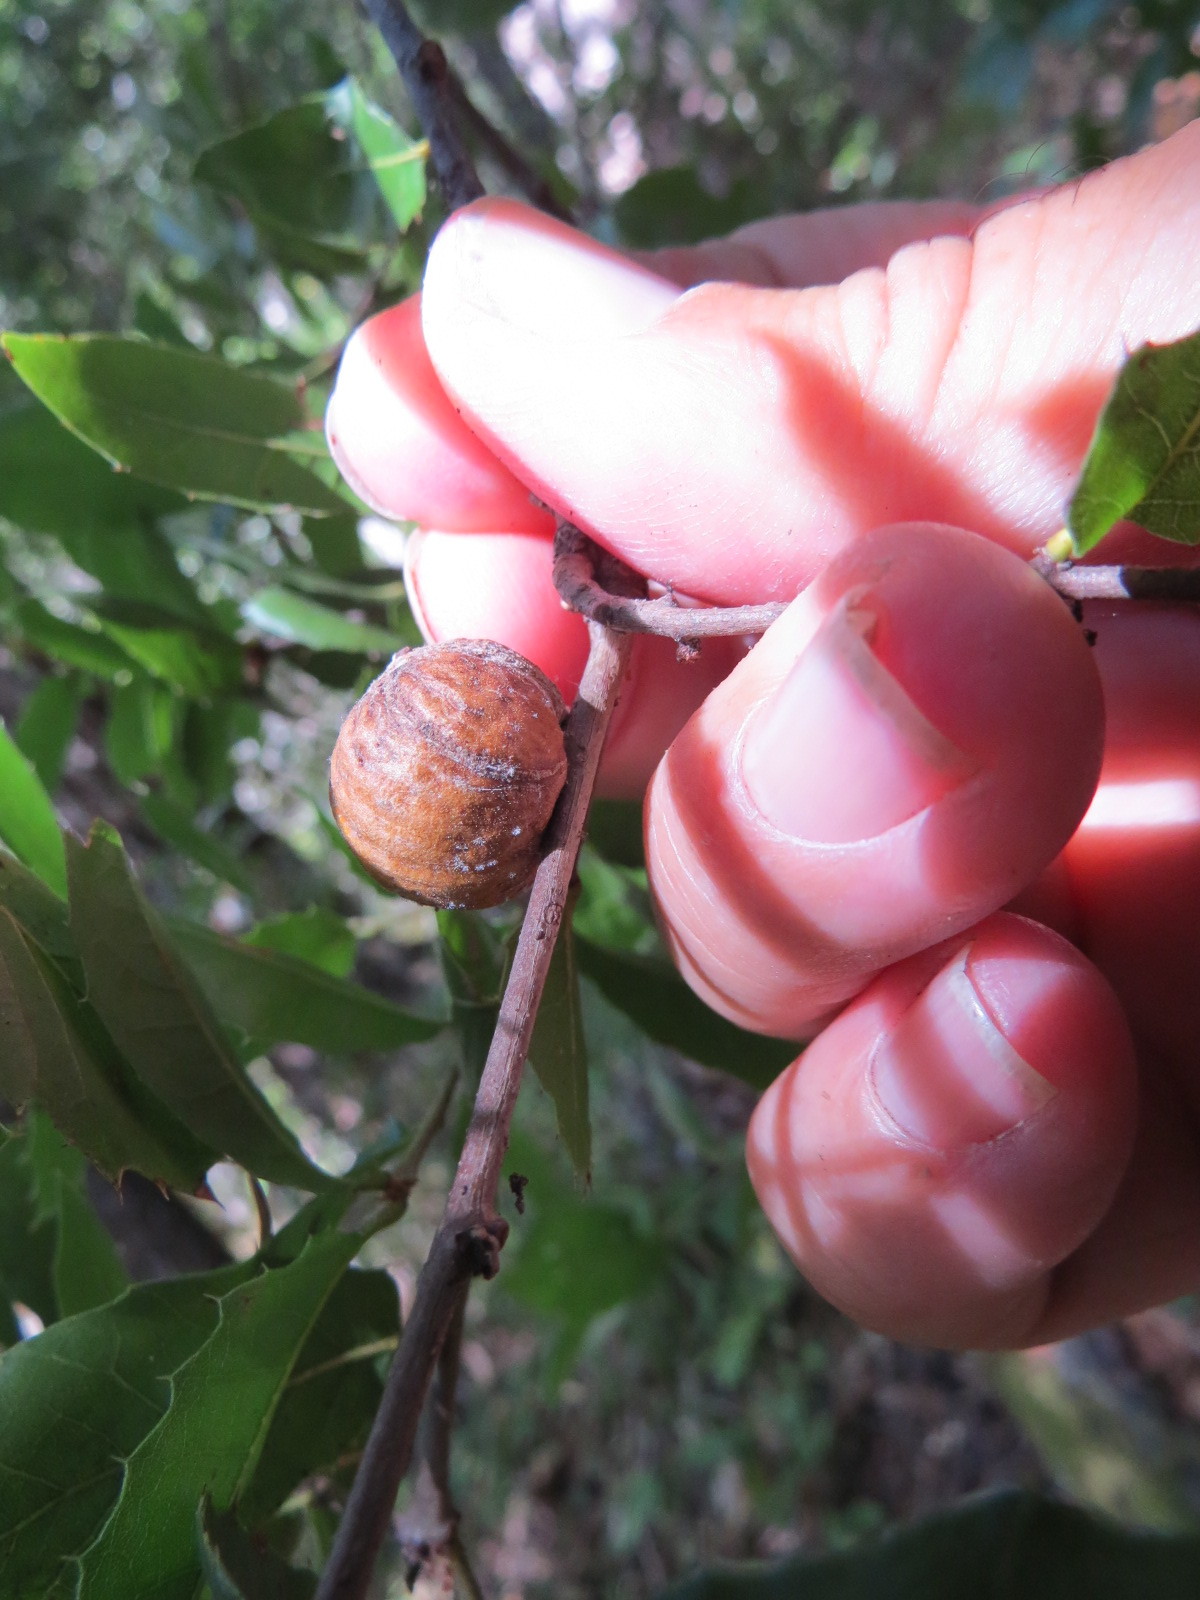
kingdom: Animalia
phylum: Arthropoda
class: Insecta
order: Hymenoptera
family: Cynipidae
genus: Amphibolips
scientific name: Amphibolips quercuspomiformis
